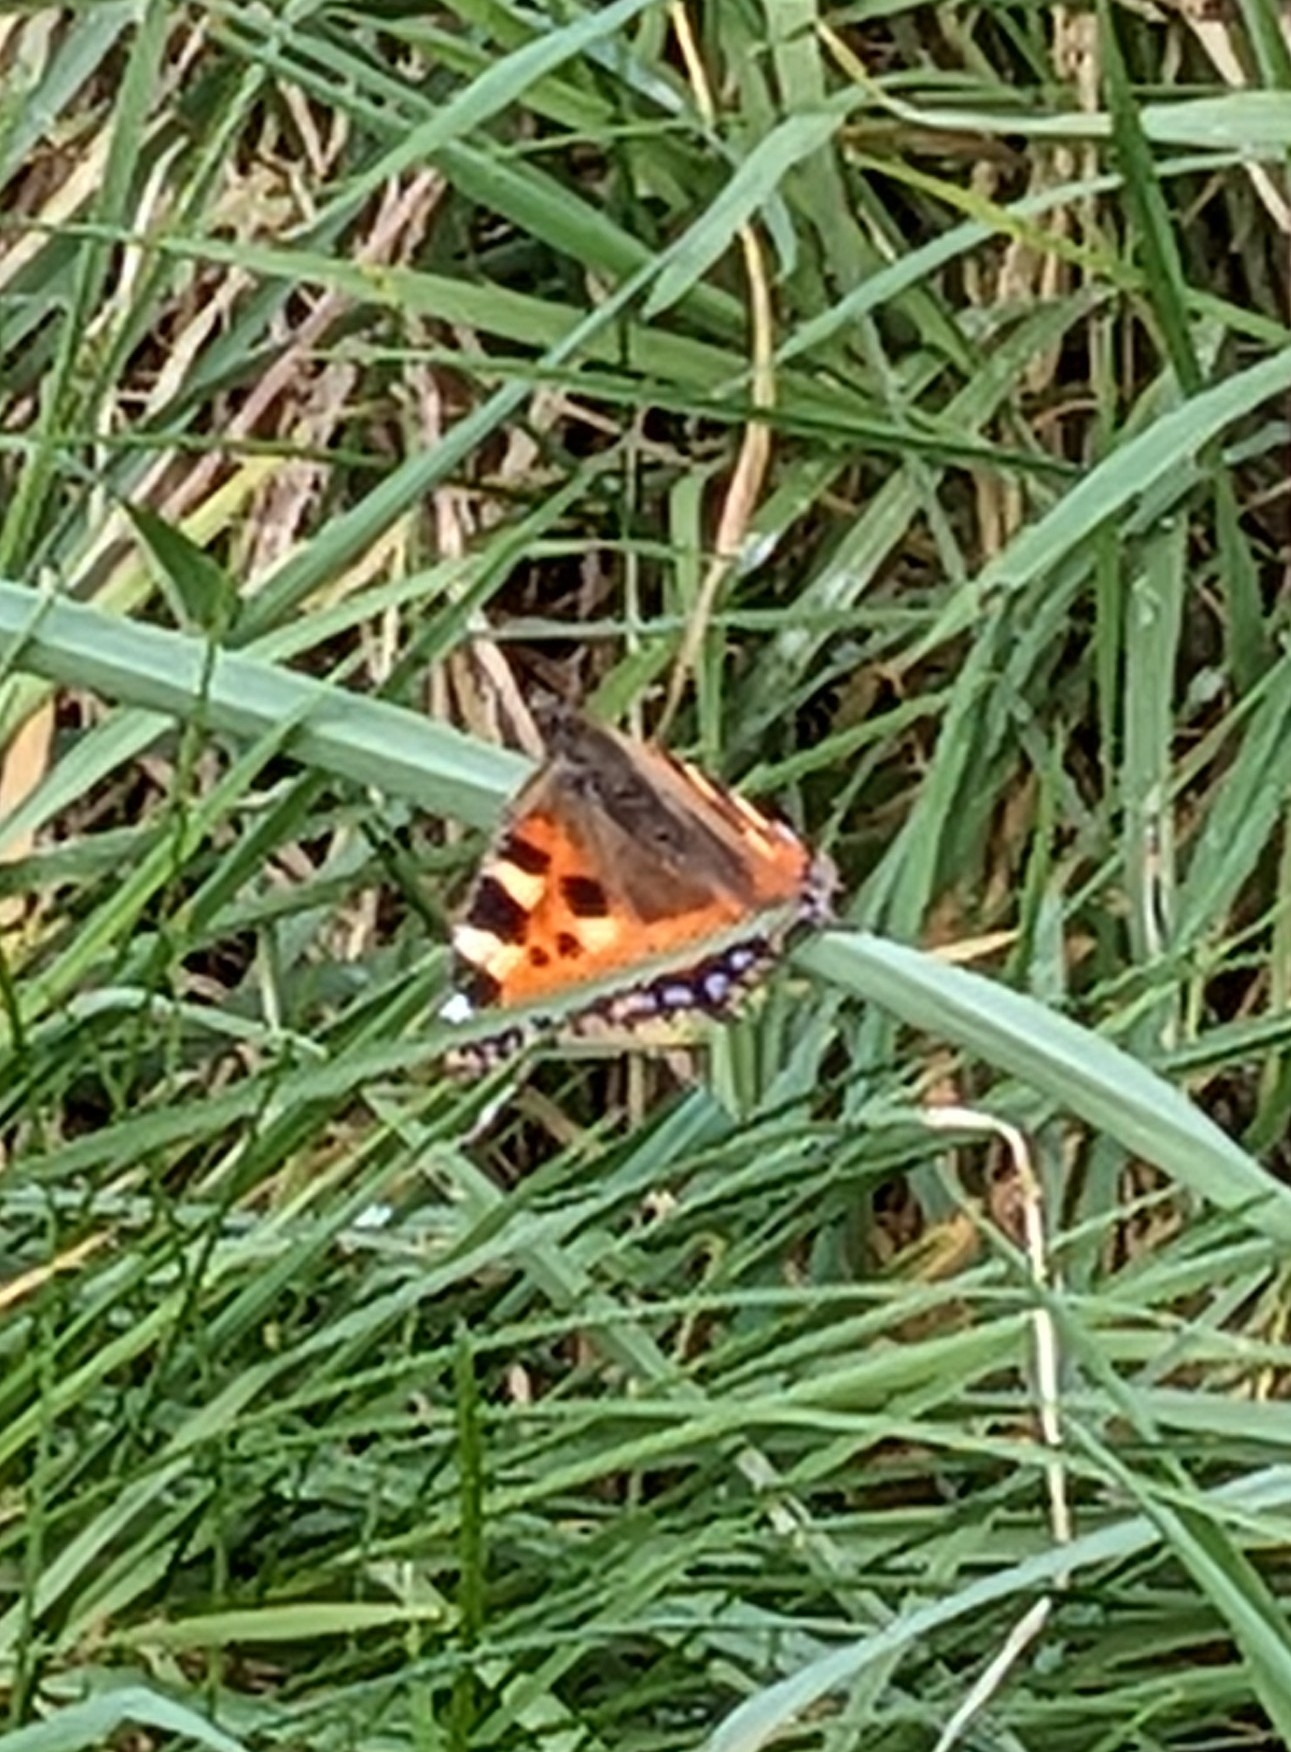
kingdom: Animalia
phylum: Arthropoda
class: Insecta
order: Lepidoptera
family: Nymphalidae
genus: Aglais
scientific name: Aglais urticae
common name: Small tortoiseshell
